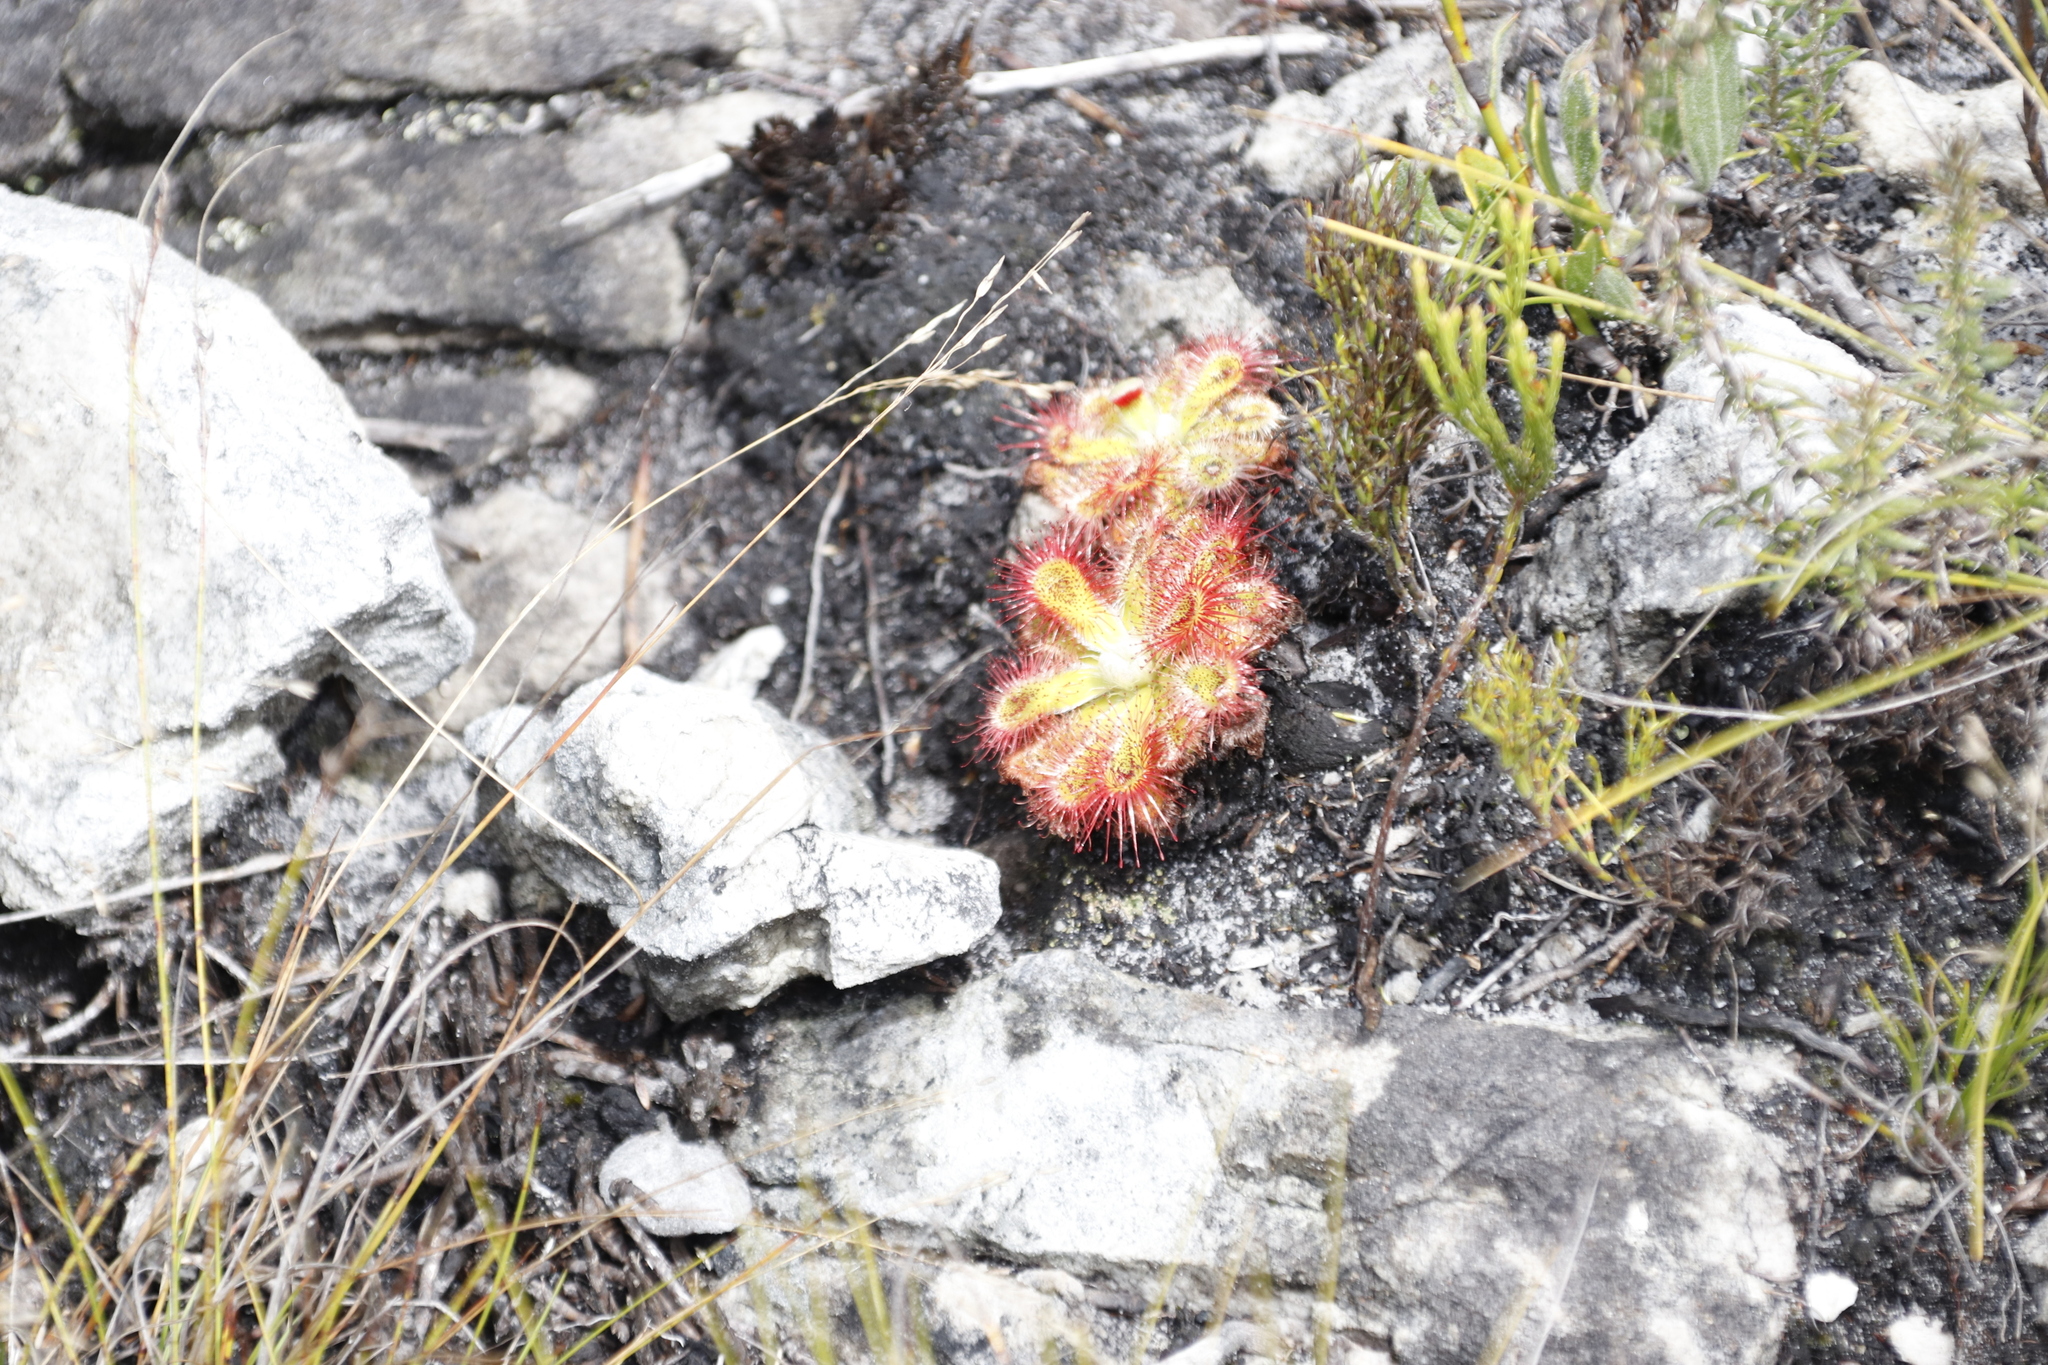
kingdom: Plantae
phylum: Tracheophyta
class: Magnoliopsida
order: Caryophyllales
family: Droseraceae
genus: Drosera
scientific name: Drosera aliciae
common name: Alice sundew
